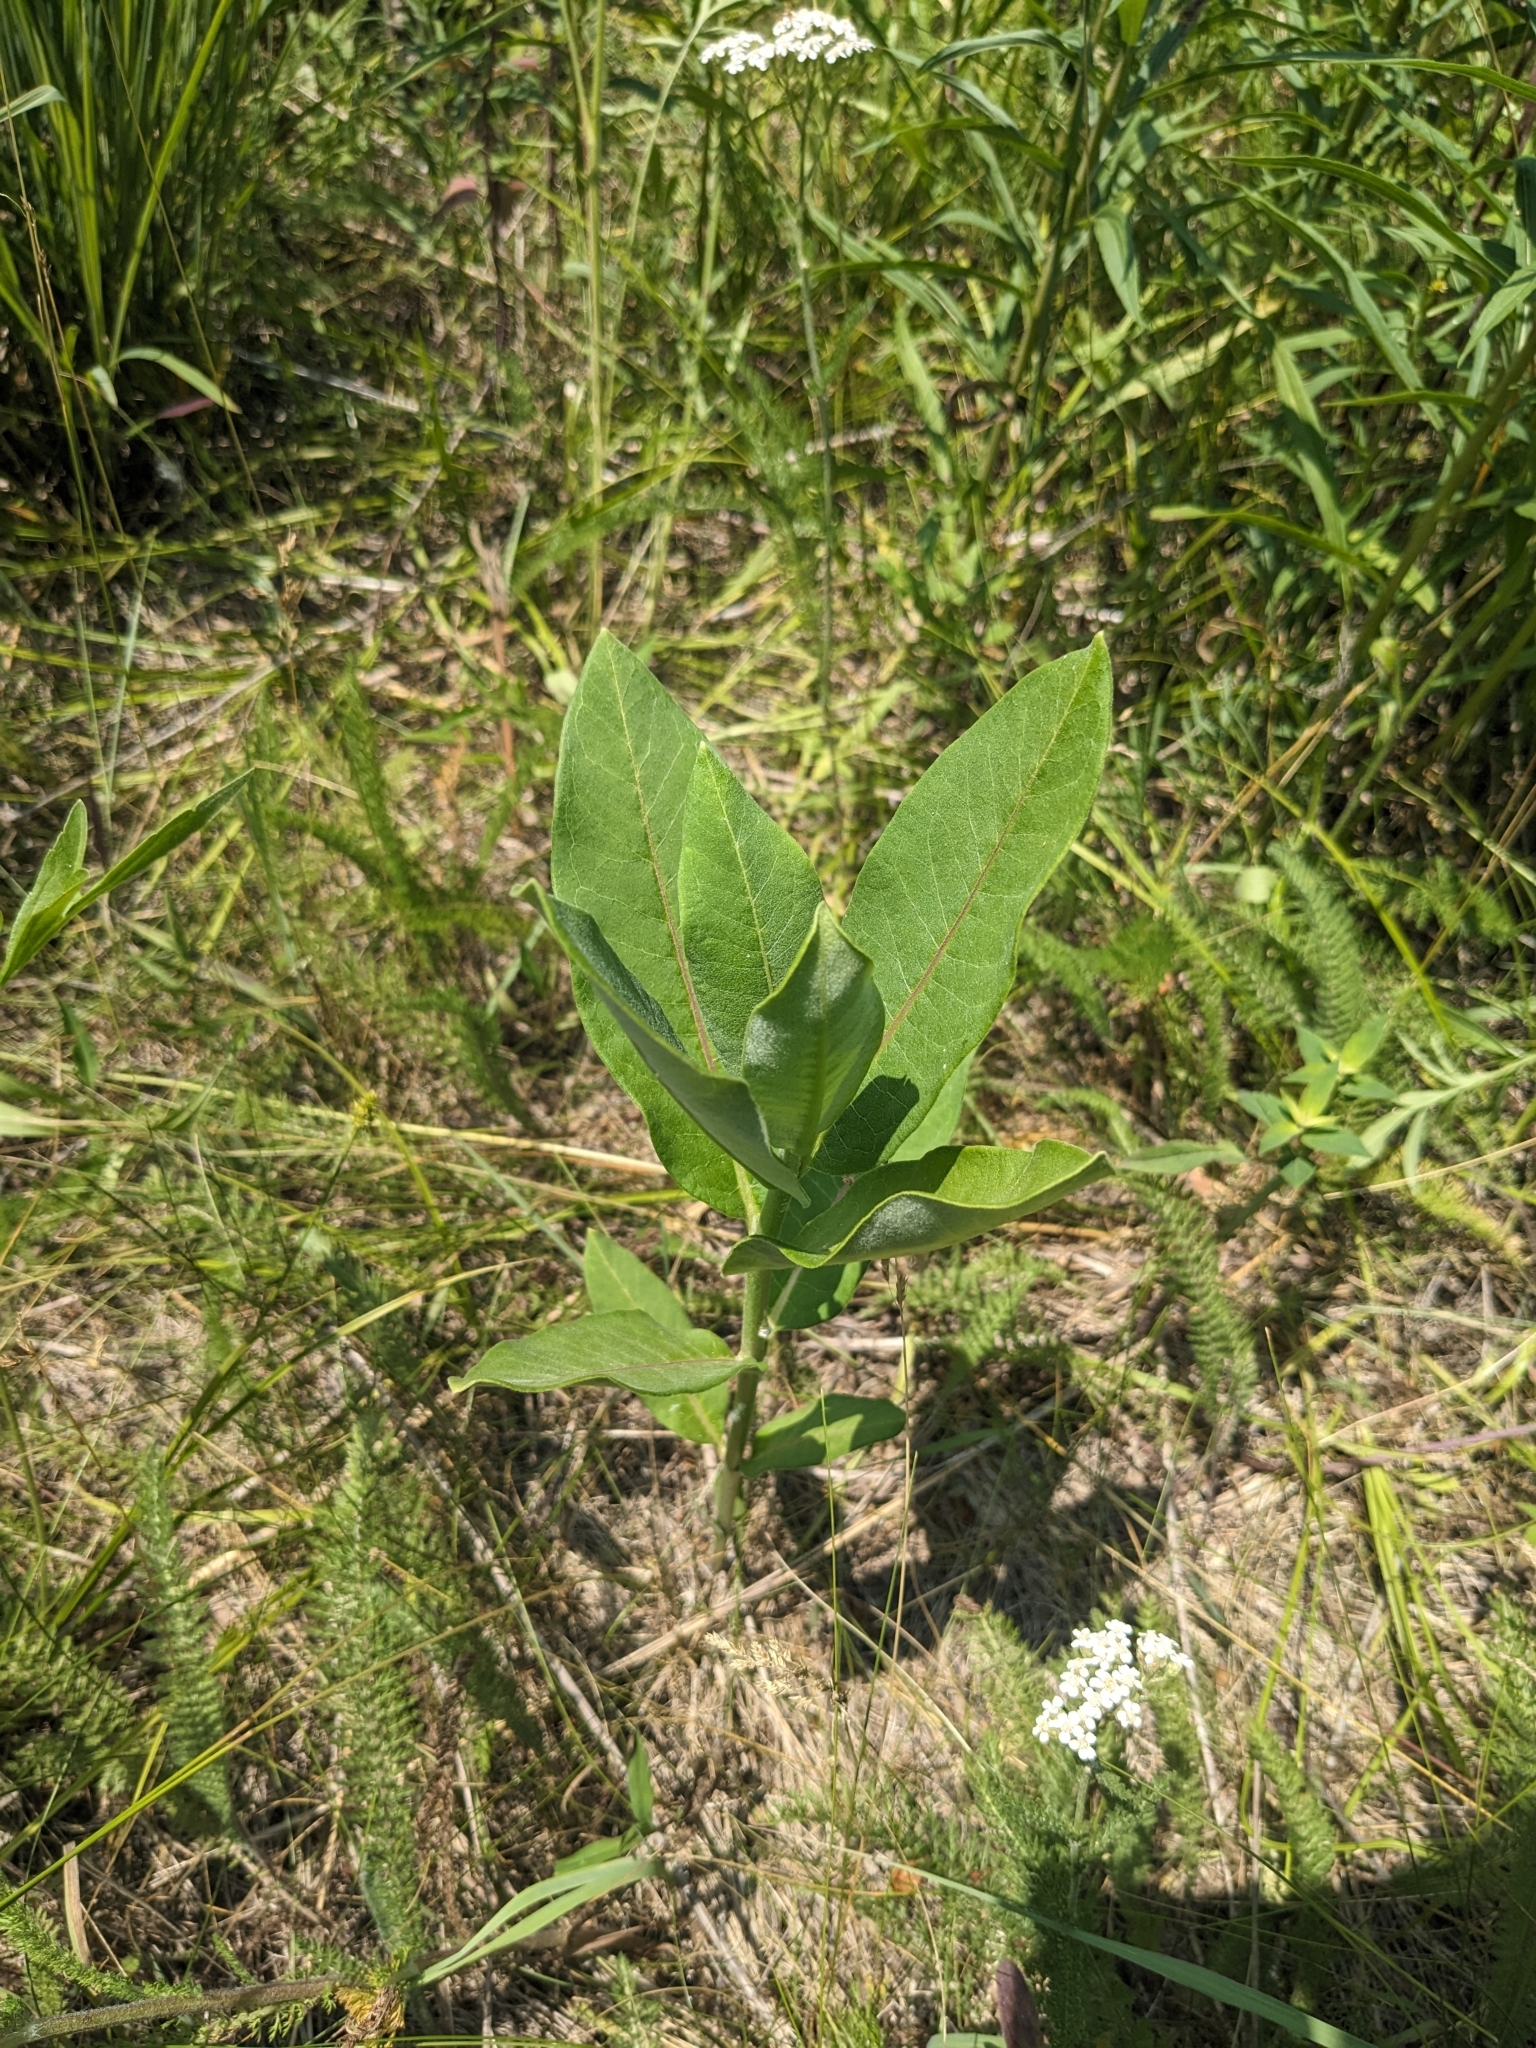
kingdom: Plantae
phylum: Tracheophyta
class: Magnoliopsida
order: Gentianales
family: Apocynaceae
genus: Asclepias
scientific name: Asclepias syriaca
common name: Common milkweed
